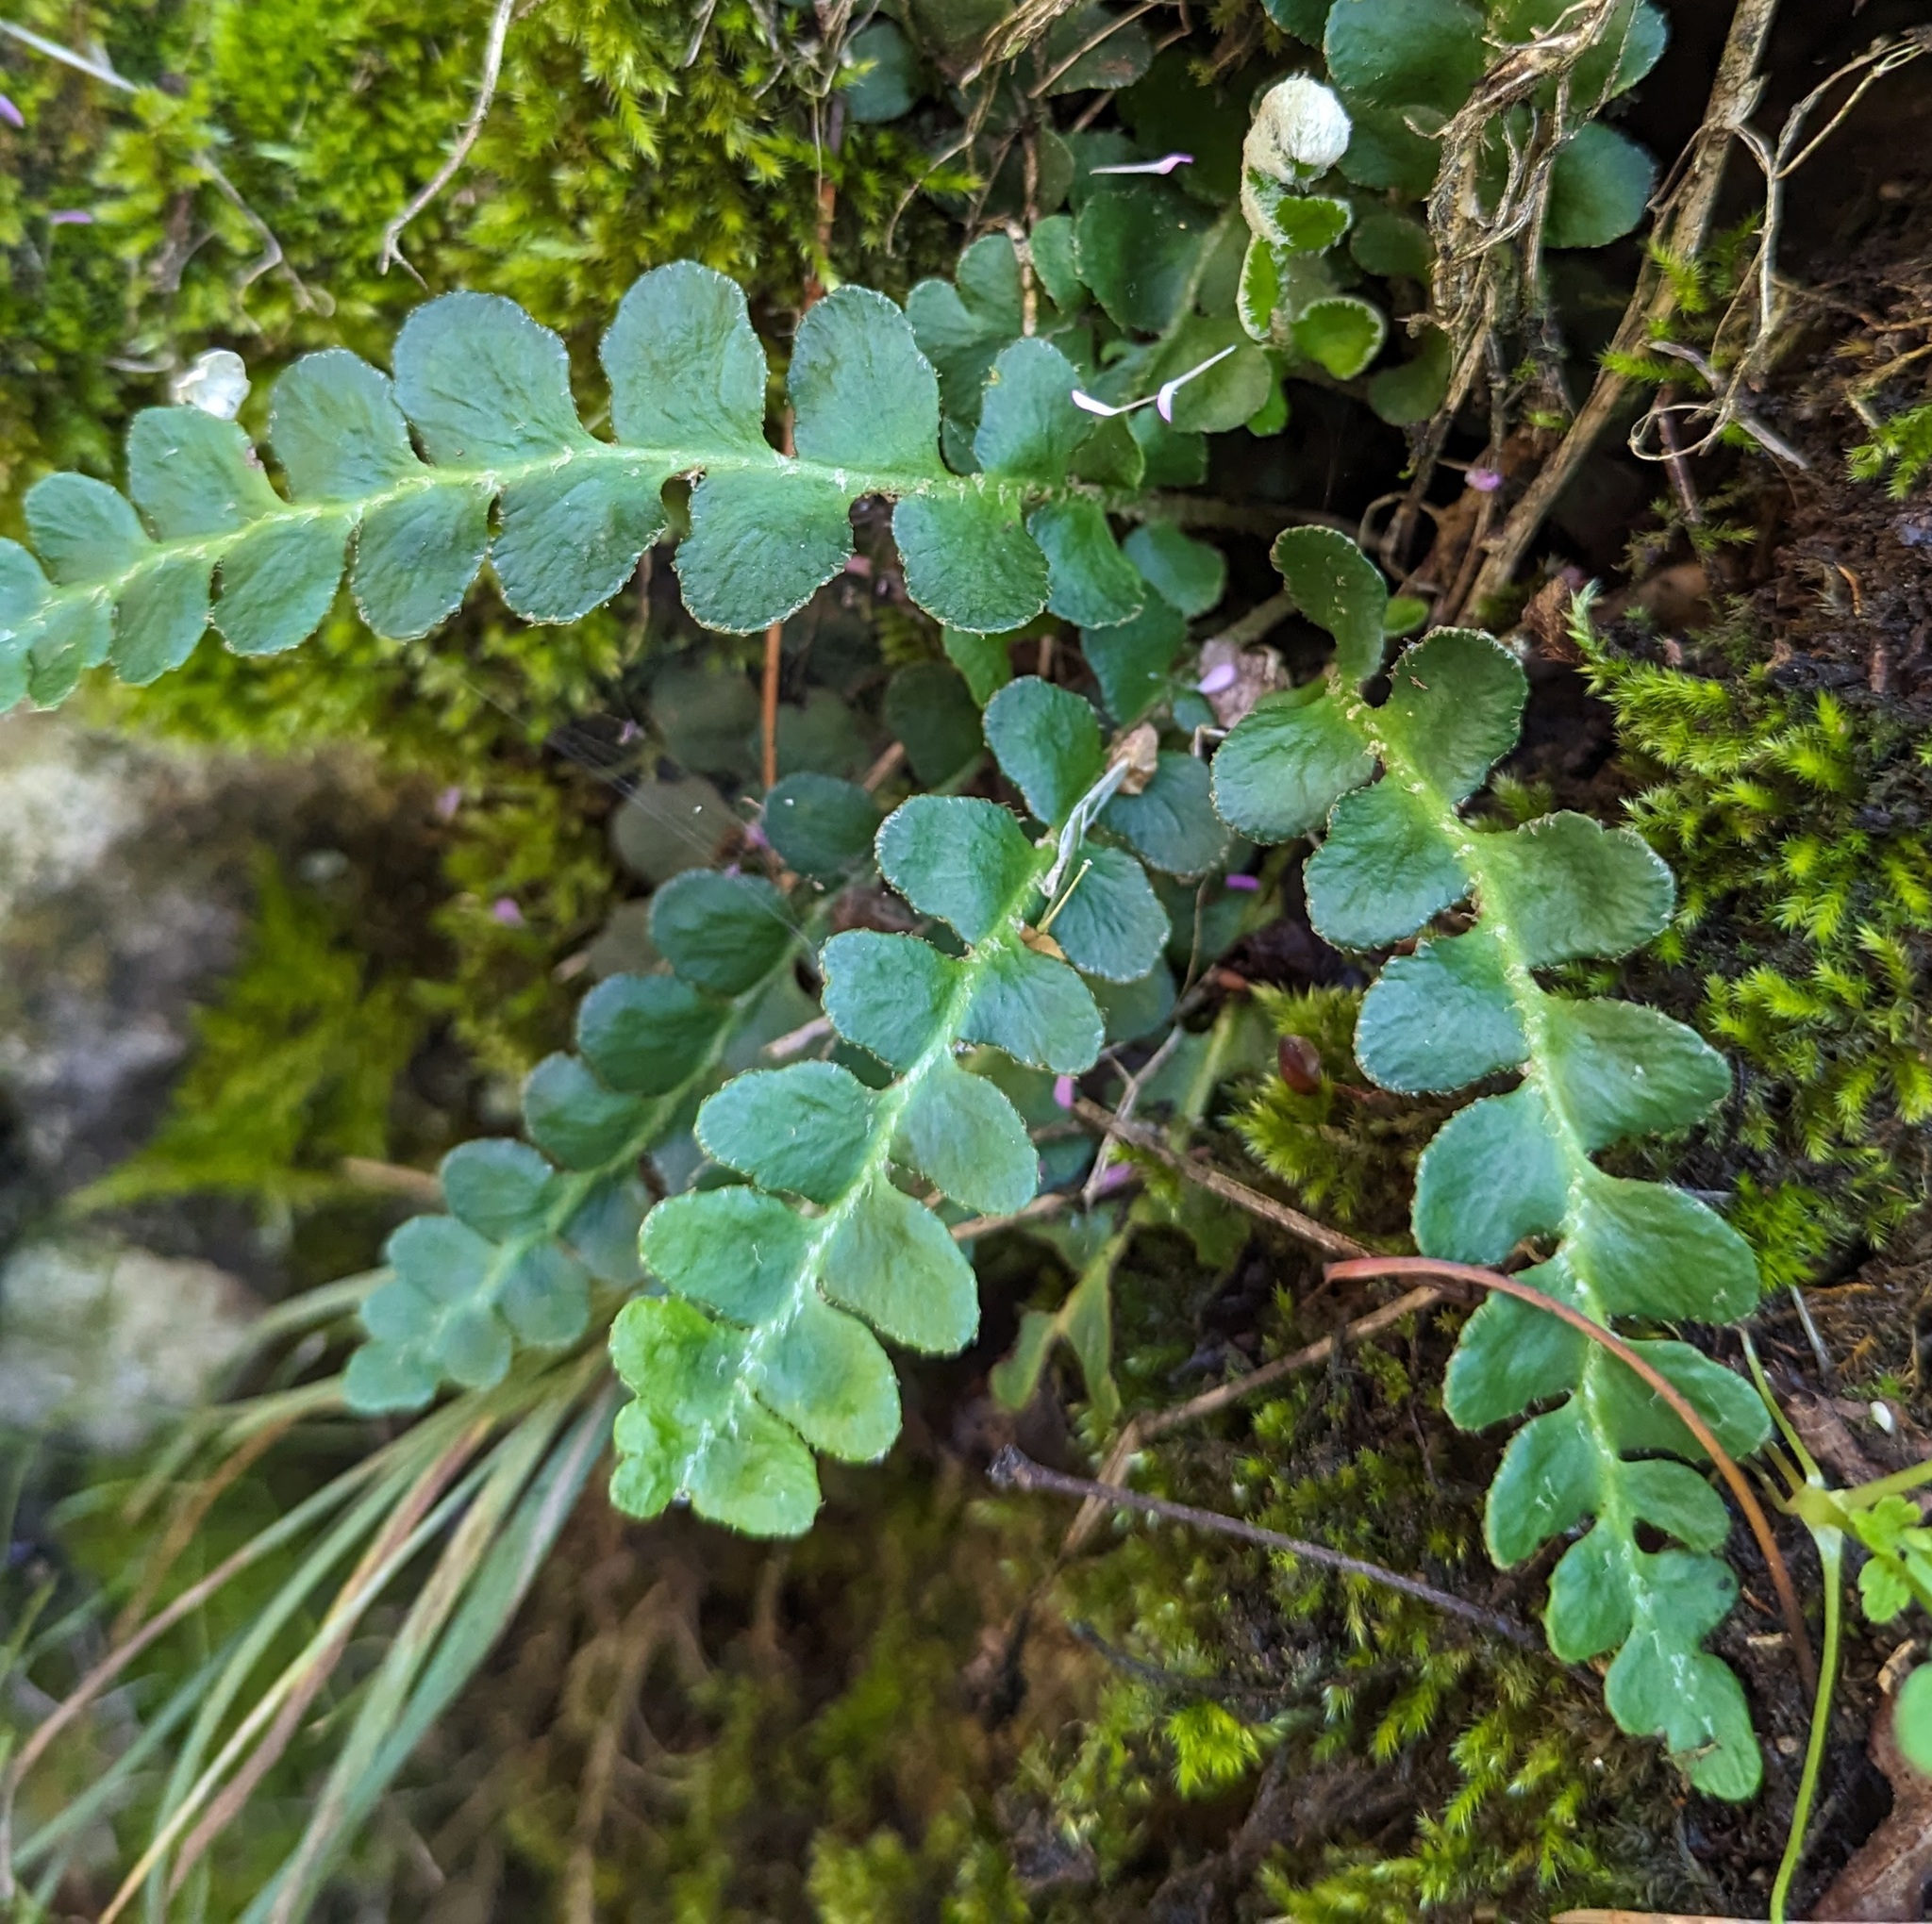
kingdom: Plantae
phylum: Tracheophyta
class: Polypodiopsida
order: Polypodiales
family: Aspleniaceae
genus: Asplenium
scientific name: Asplenium ceterach
